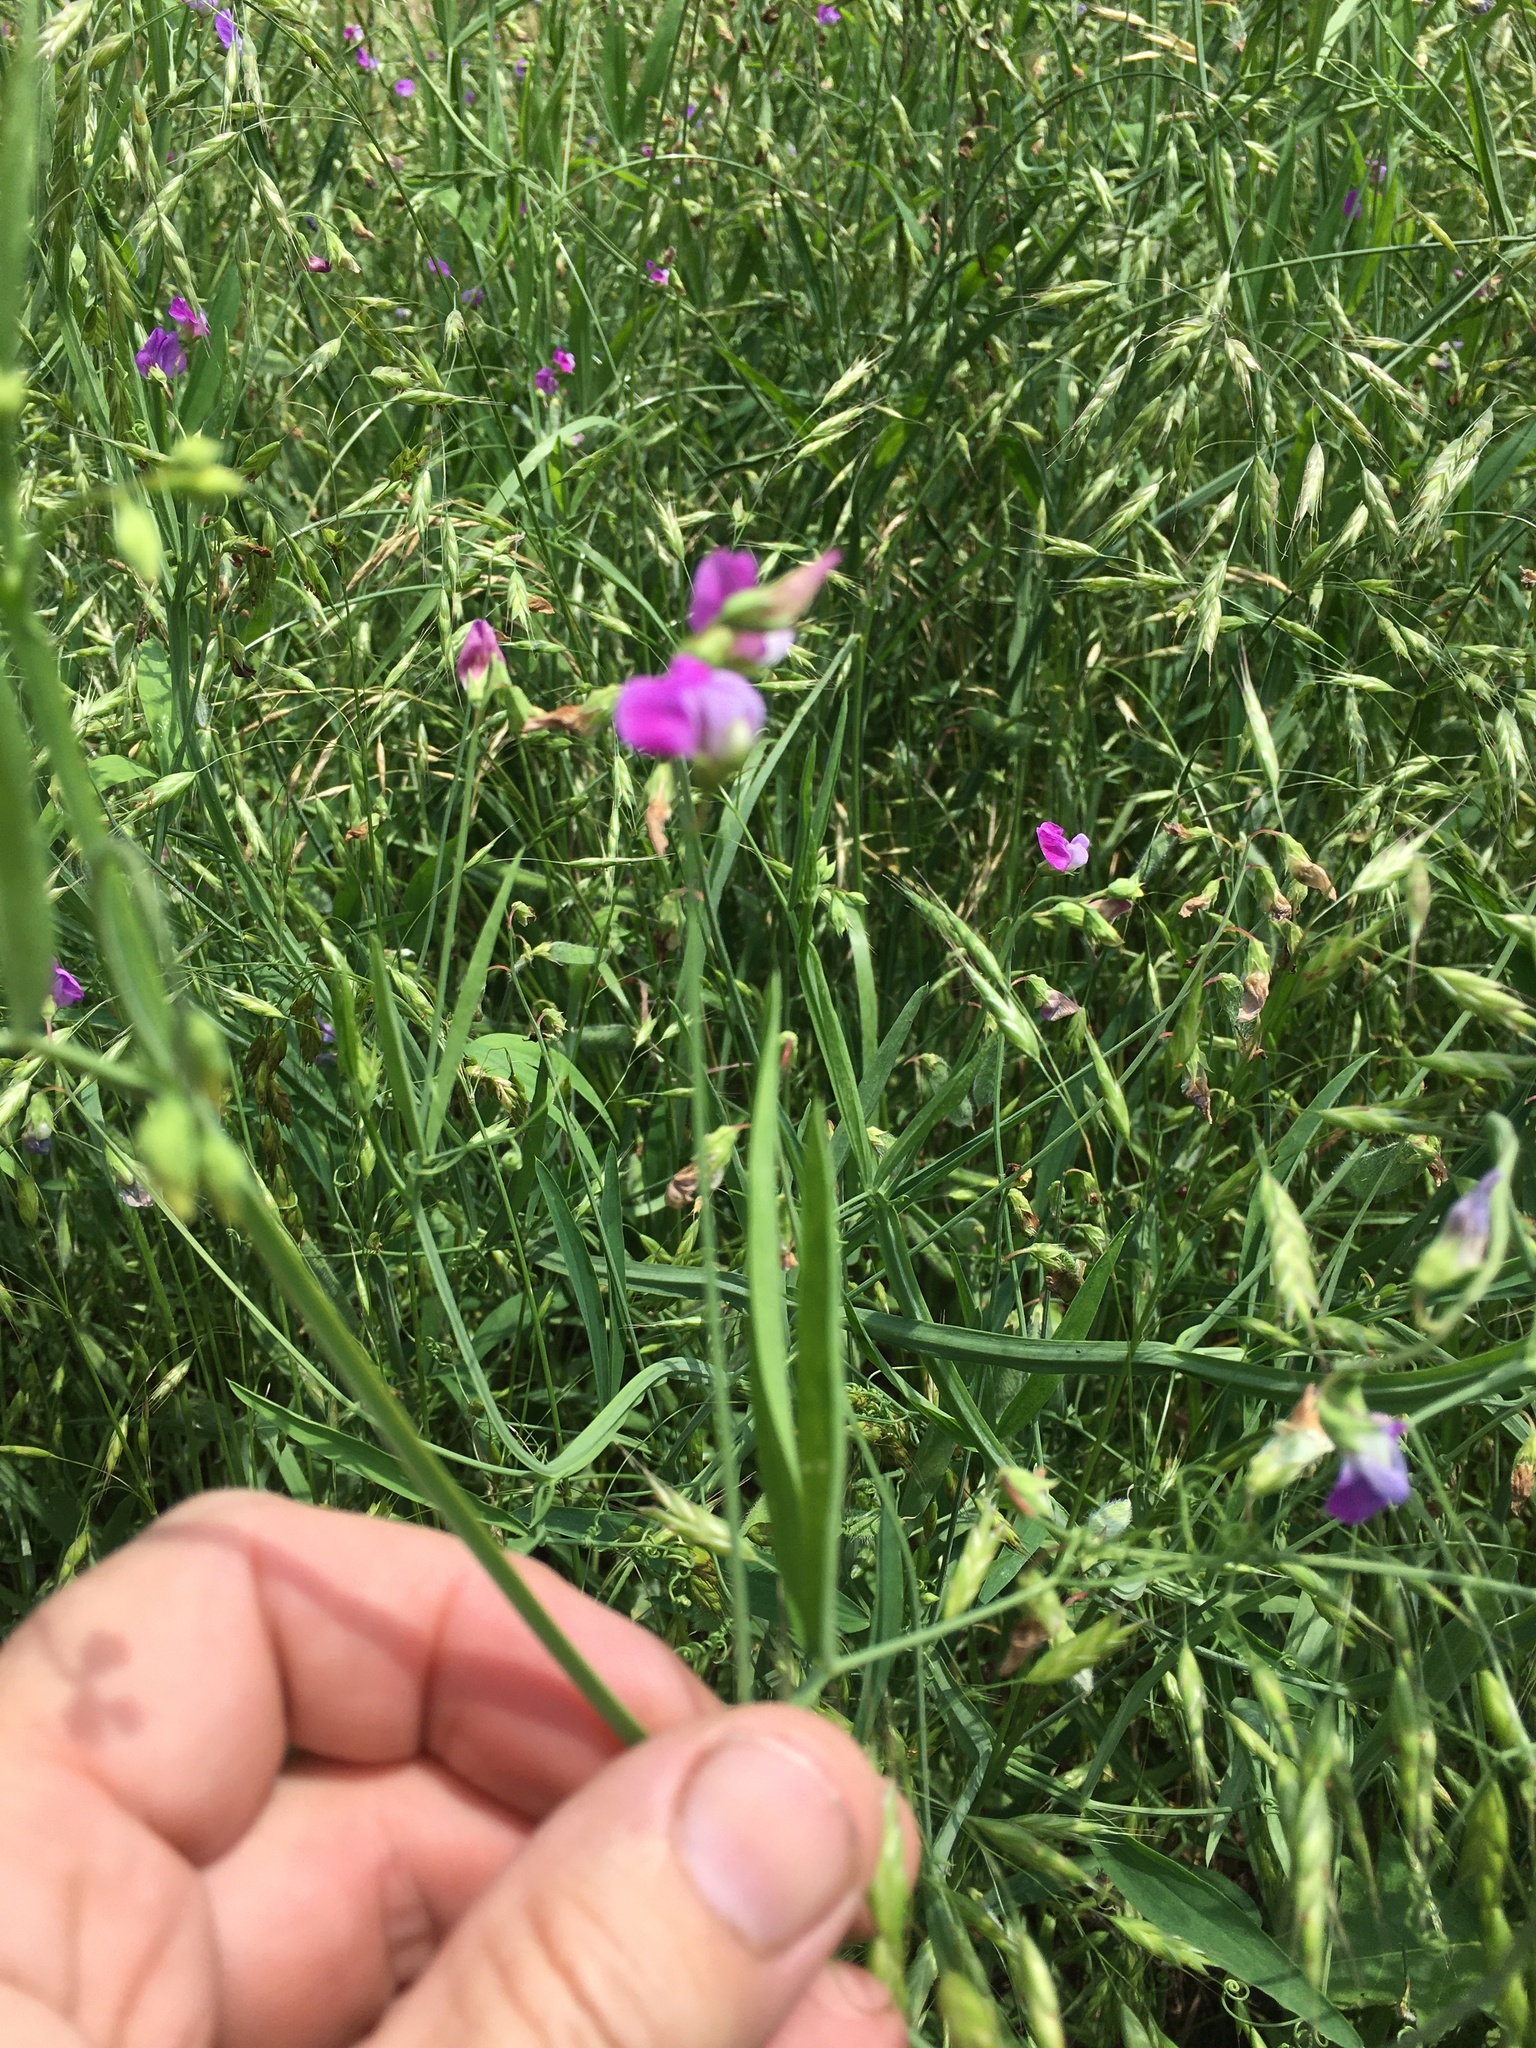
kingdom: Plantae
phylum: Tracheophyta
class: Magnoliopsida
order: Fabales
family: Fabaceae
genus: Lathyrus
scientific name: Lathyrus hirsutus
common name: Hairy vetchling
